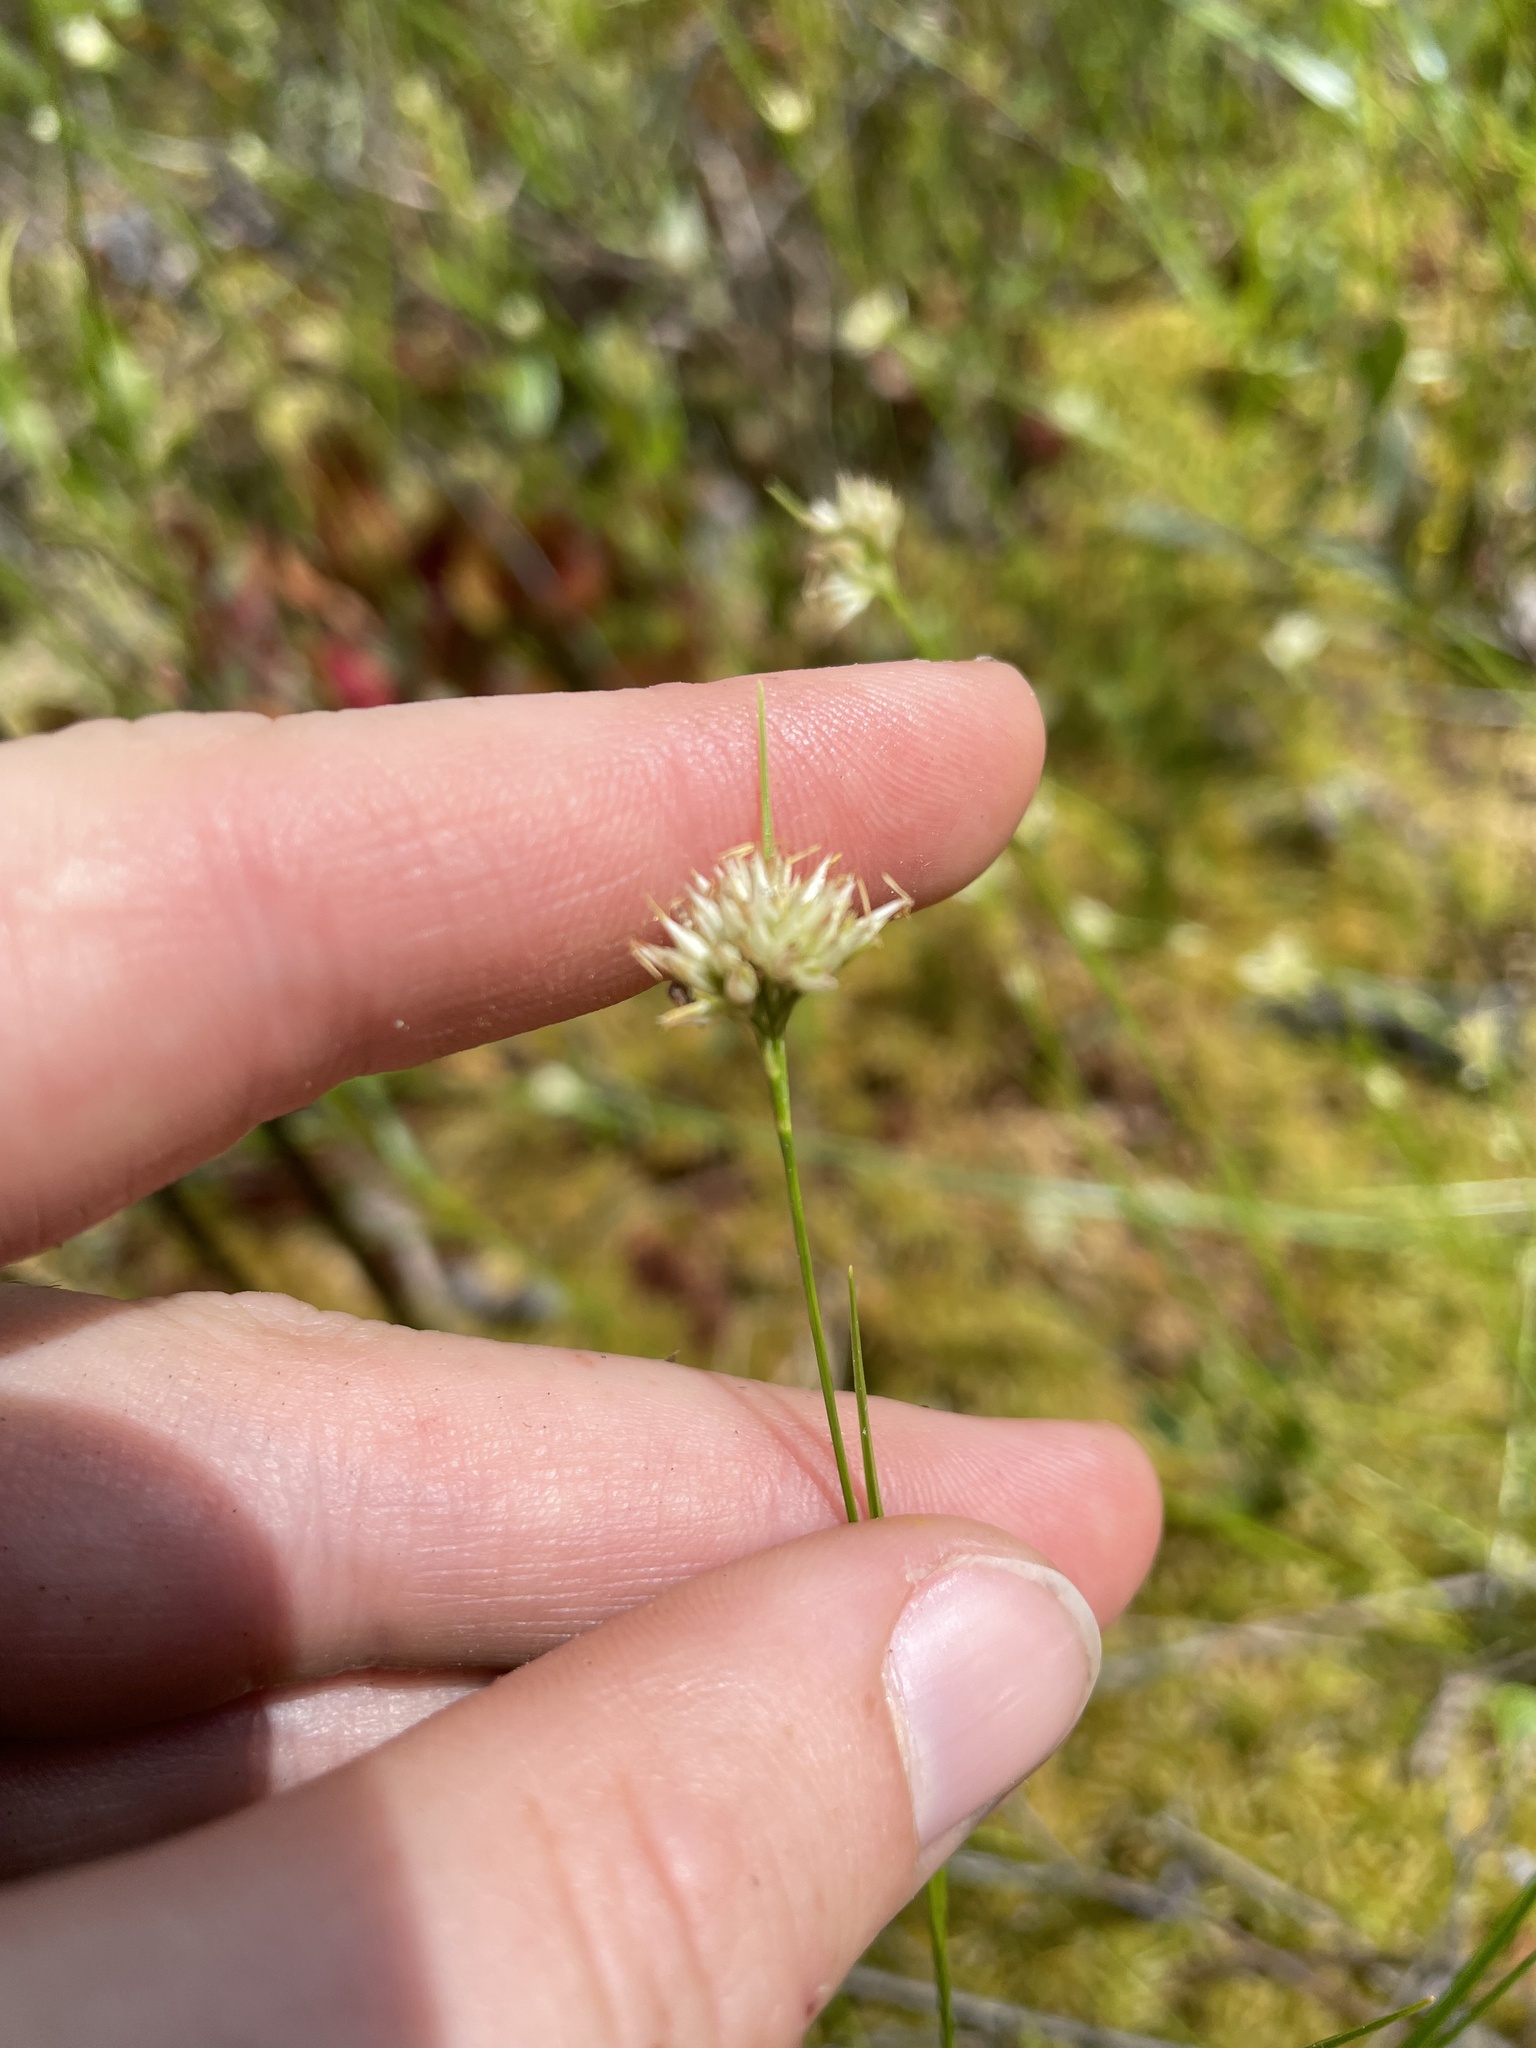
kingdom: Plantae
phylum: Tracheophyta
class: Liliopsida
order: Poales
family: Cyperaceae
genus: Rhynchospora
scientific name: Rhynchospora alba
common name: White beak-sedge
